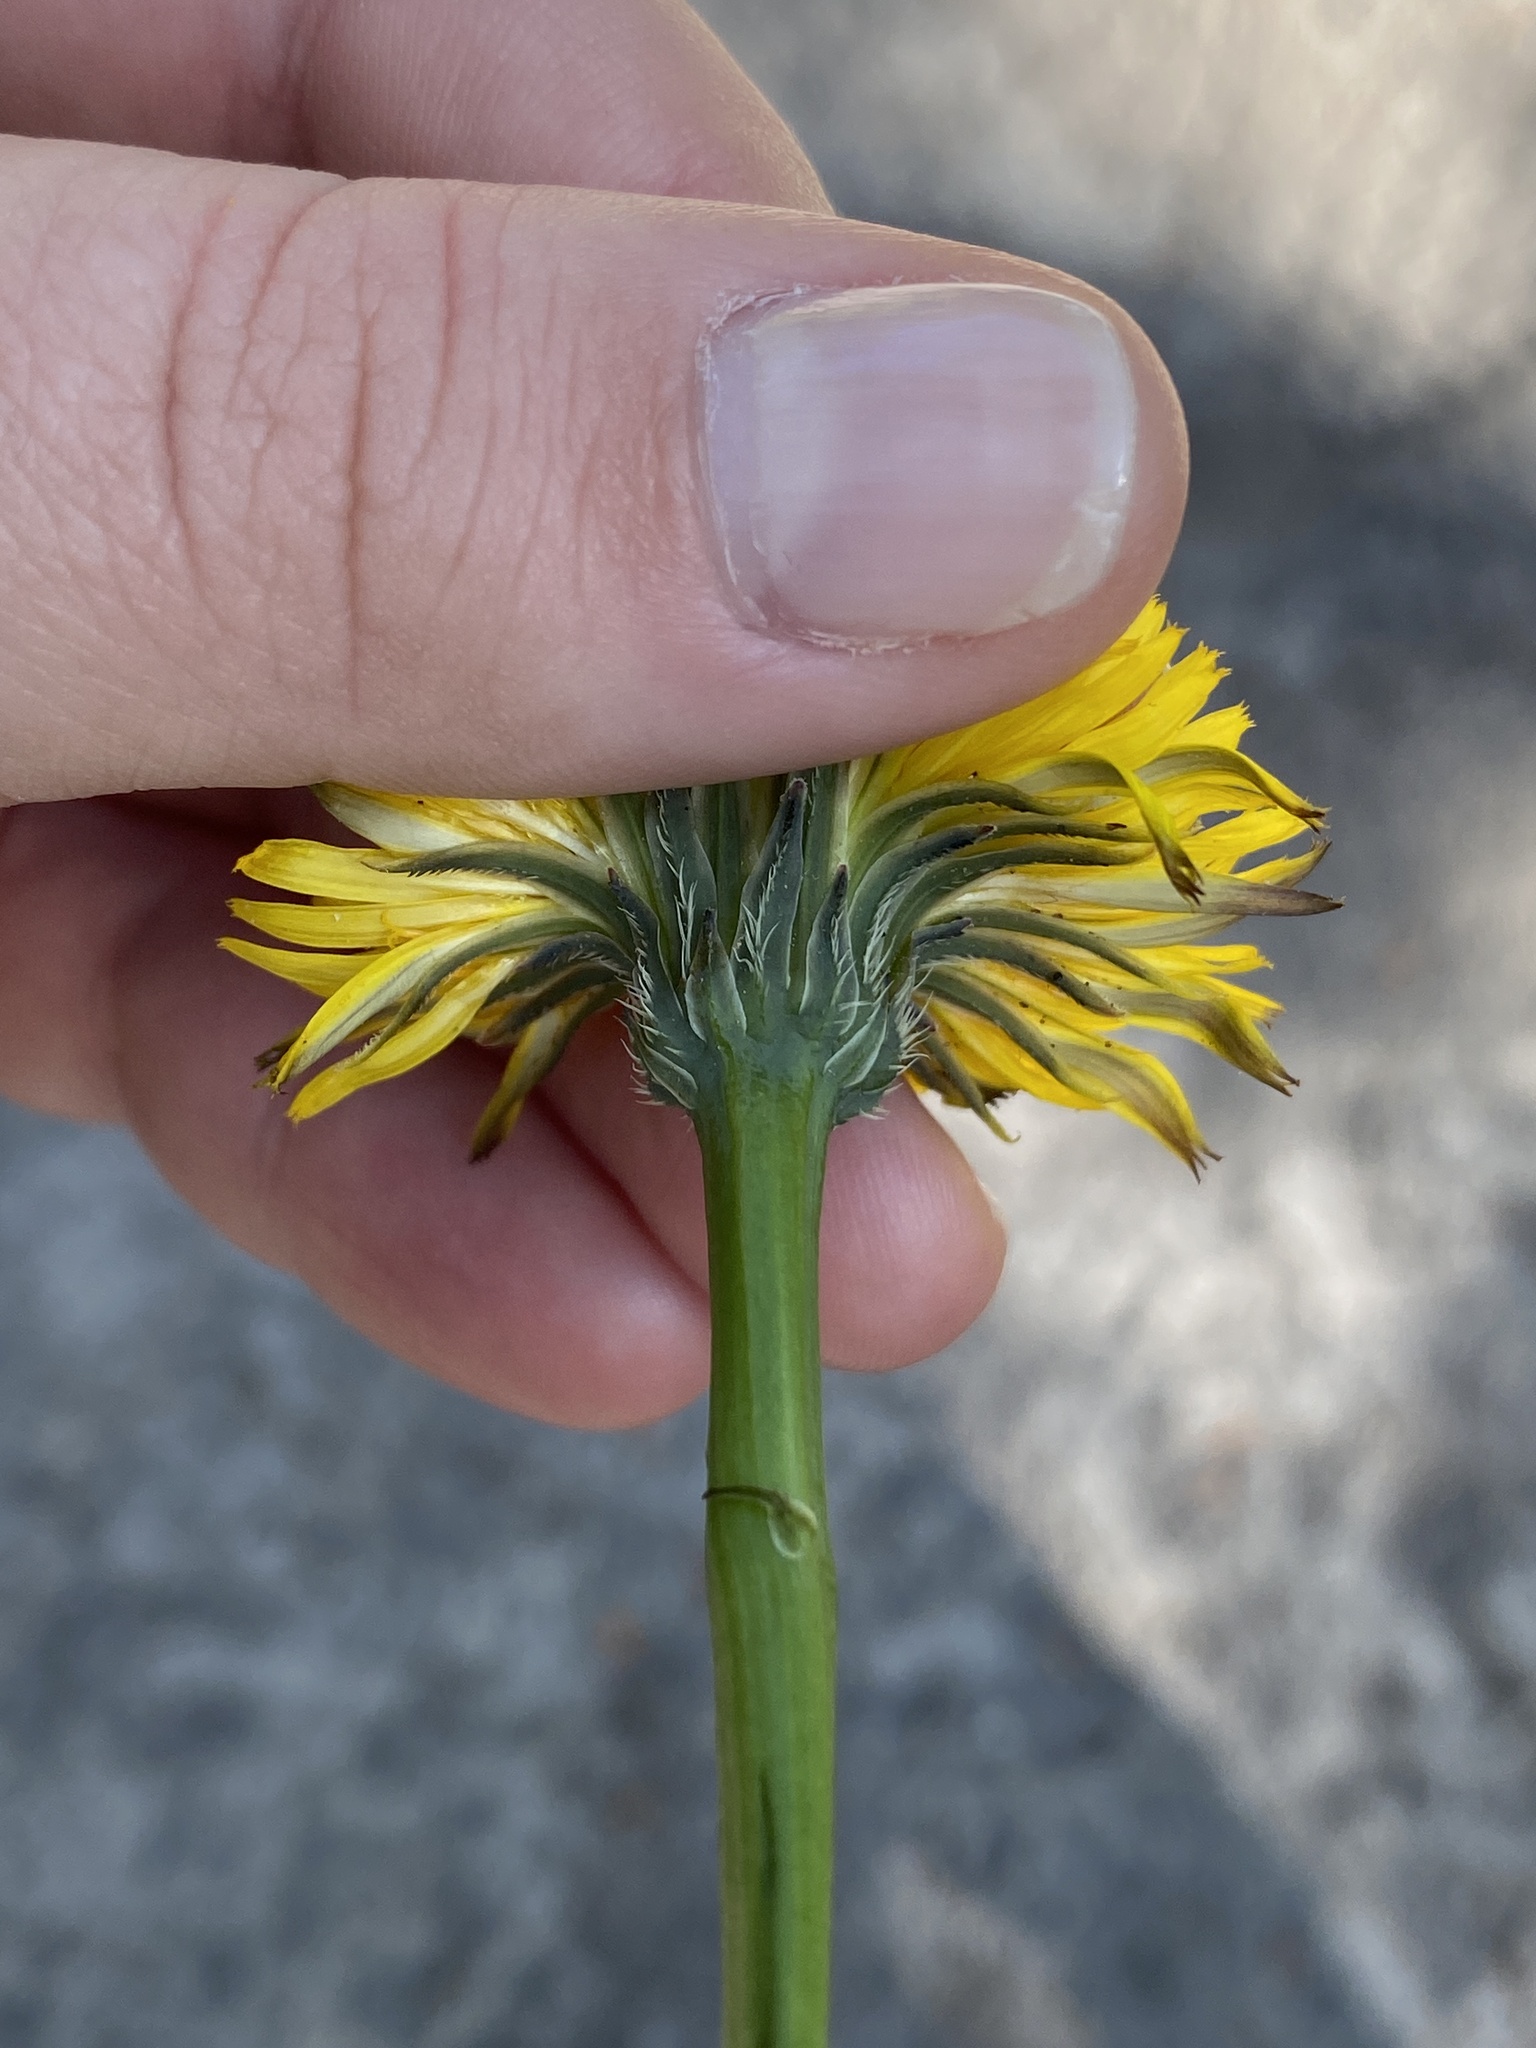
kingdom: Plantae
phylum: Tracheophyta
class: Magnoliopsida
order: Asterales
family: Asteraceae
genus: Hypochaeris
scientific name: Hypochaeris radicata
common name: Flatweed
